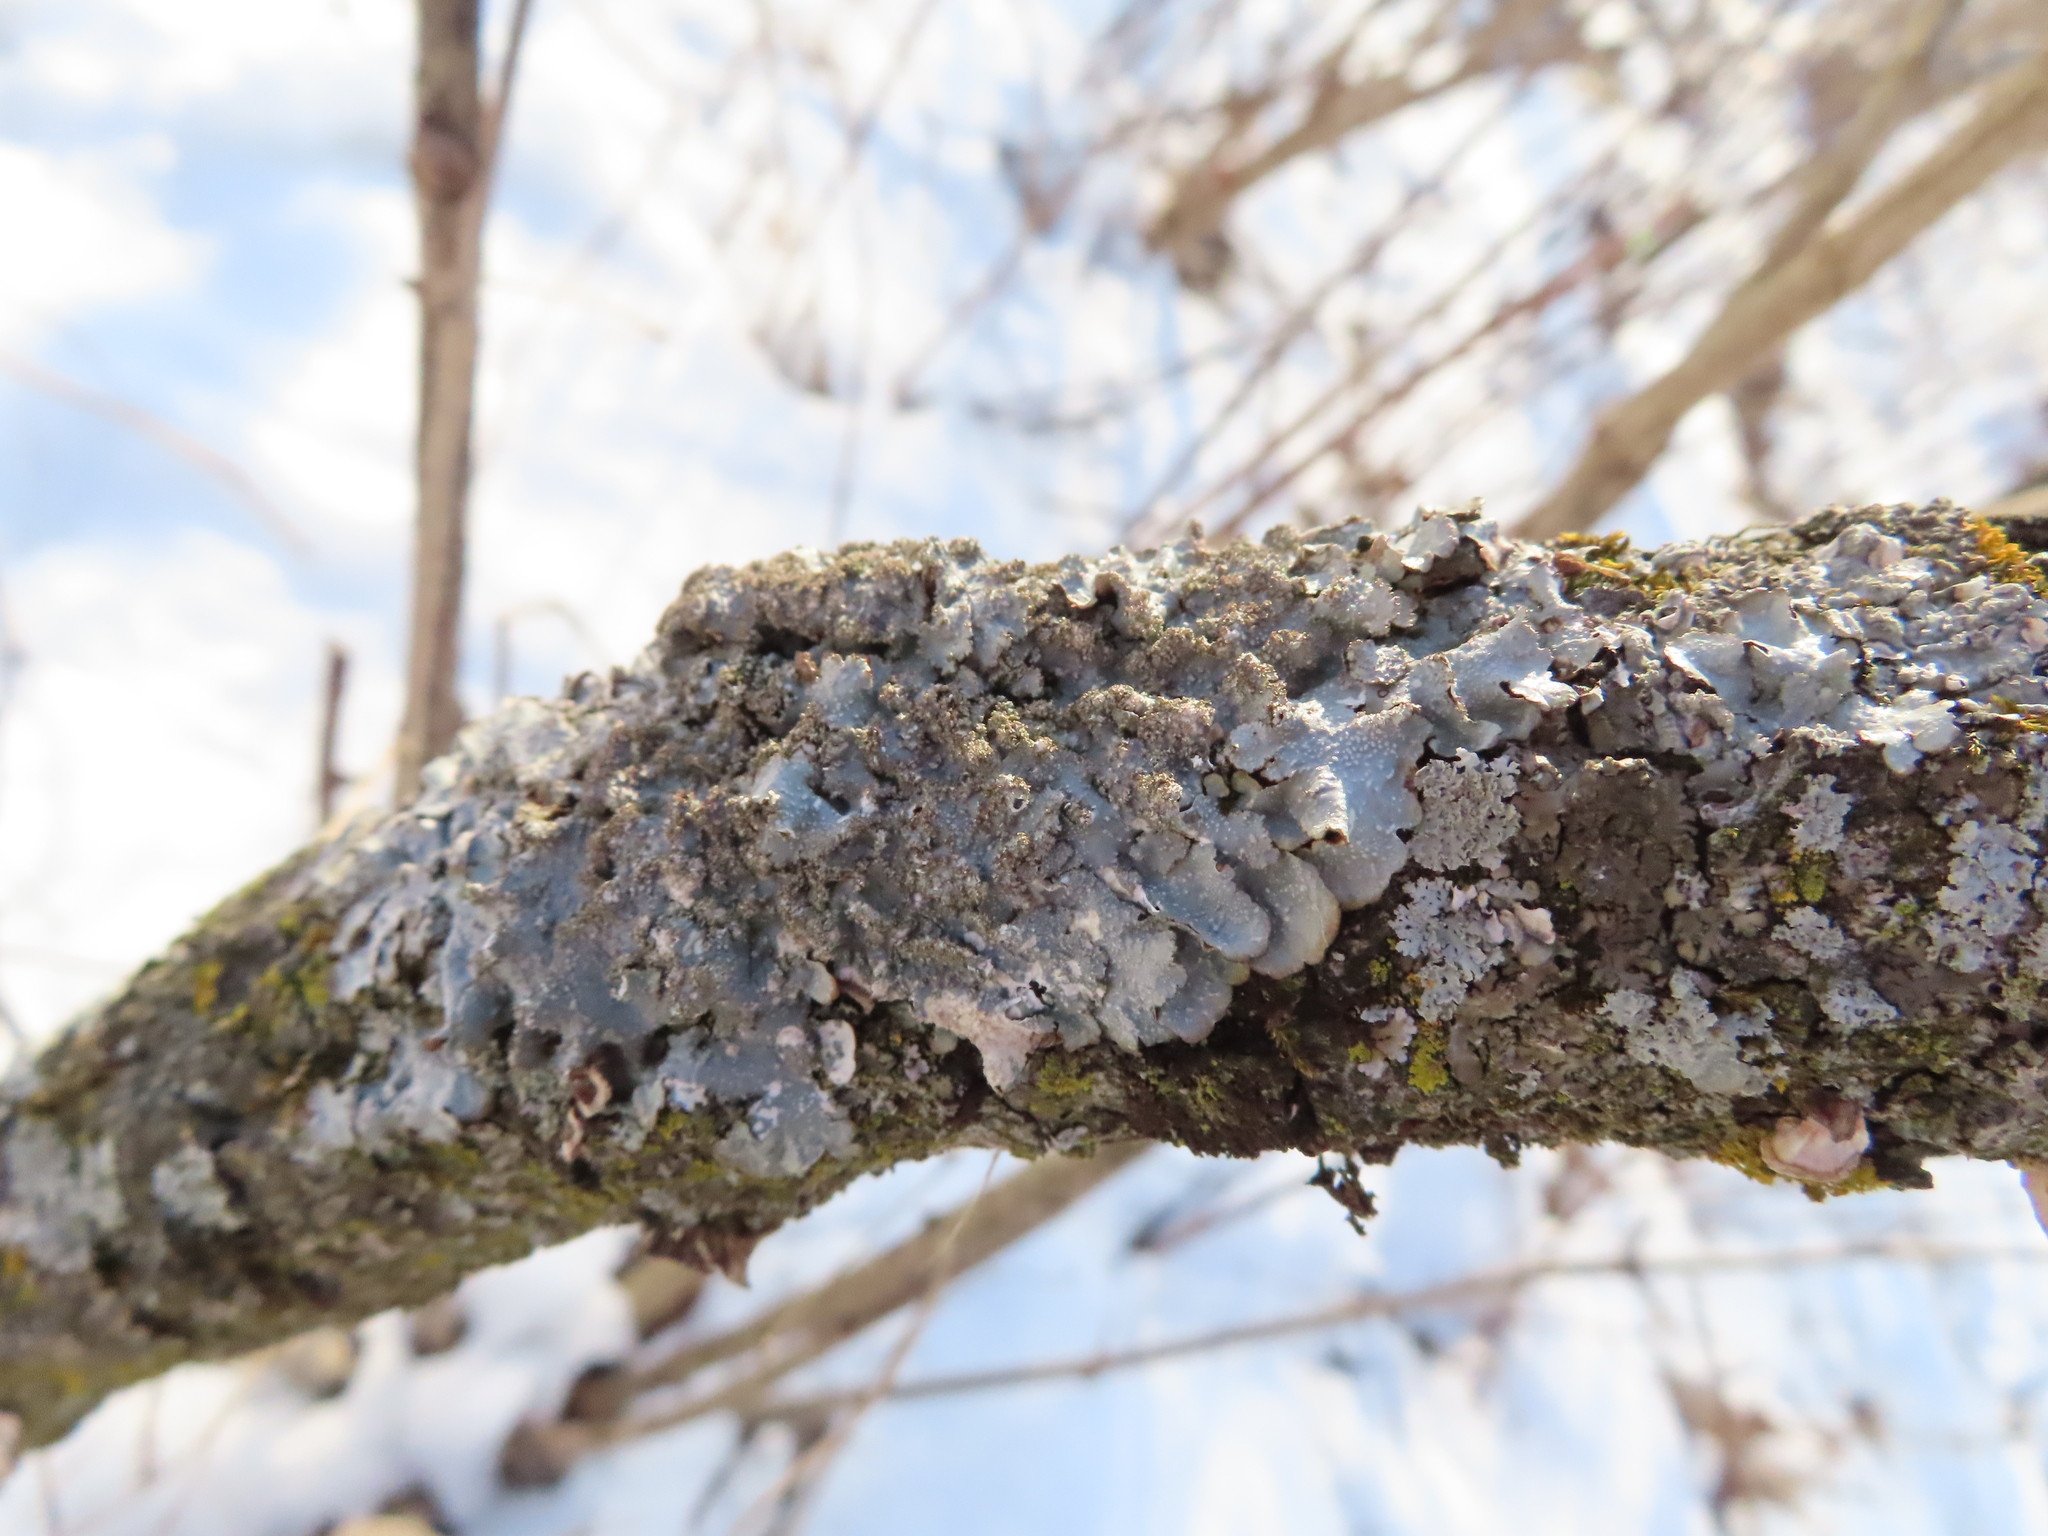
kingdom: Fungi
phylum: Ascomycota
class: Lecanoromycetes
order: Lecanorales
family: Parmeliaceae
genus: Punctelia
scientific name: Punctelia rudecta
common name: Rough speckled shield lichen
